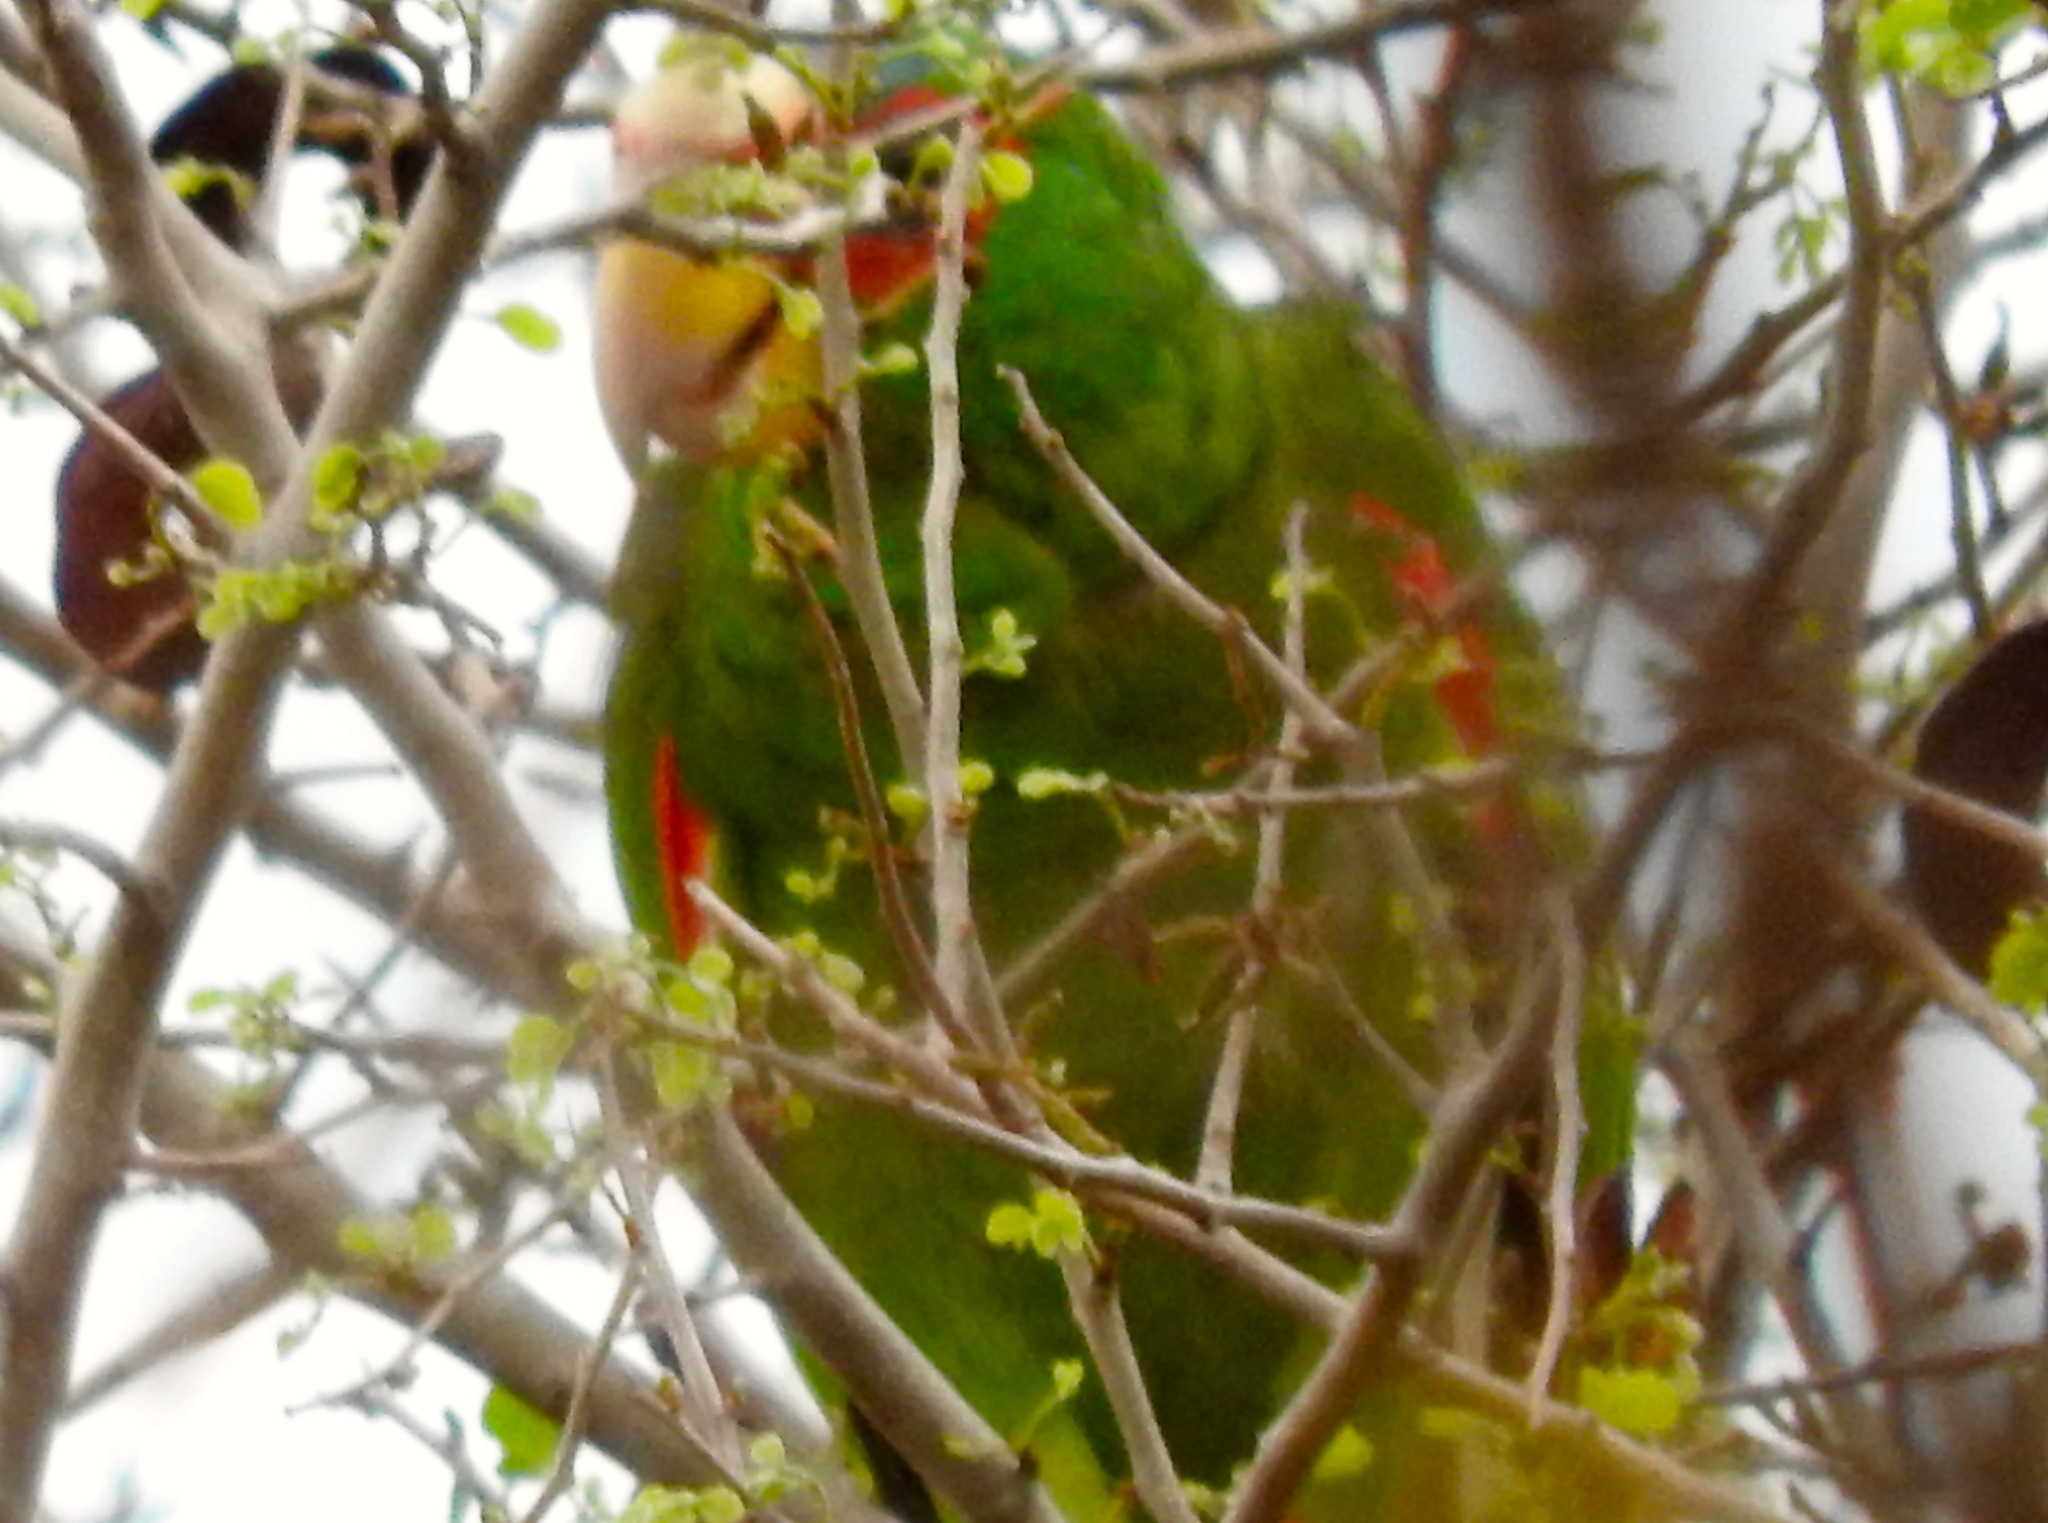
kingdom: Animalia
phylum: Chordata
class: Aves
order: Psittaciformes
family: Psittacidae
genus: Amazona
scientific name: Amazona albifrons
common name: White-fronted amazon
